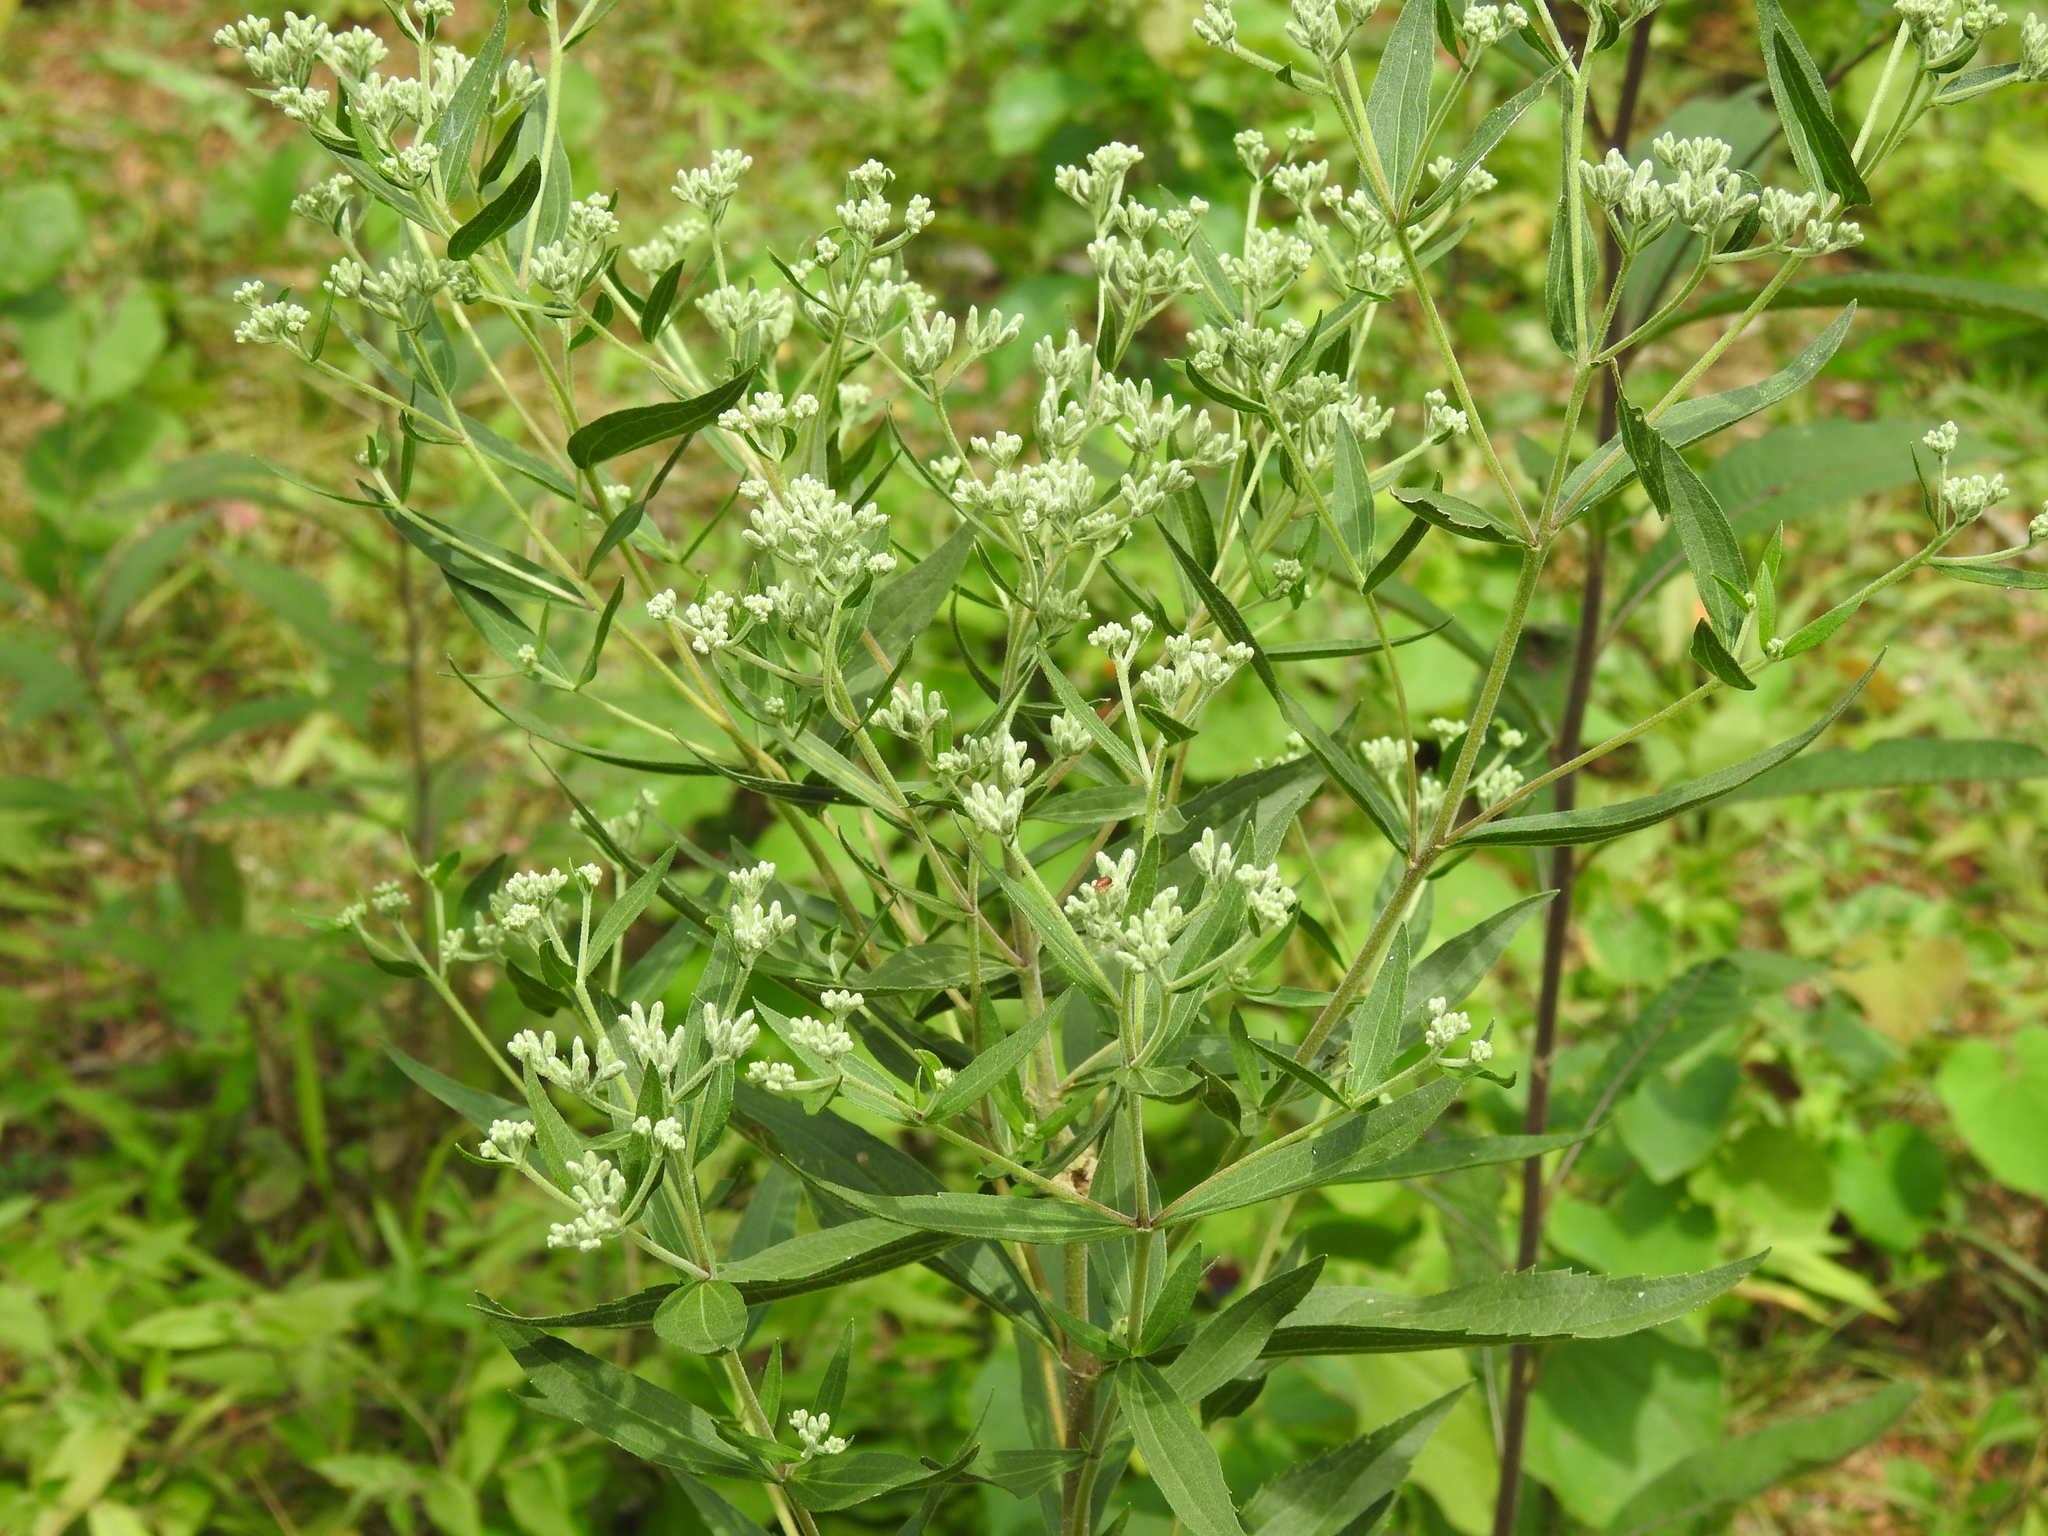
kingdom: Plantae
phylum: Tracheophyta
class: Magnoliopsida
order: Asterales
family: Asteraceae
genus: Eupatorium
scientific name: Eupatorium altissimum
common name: Tall thoroughwort
